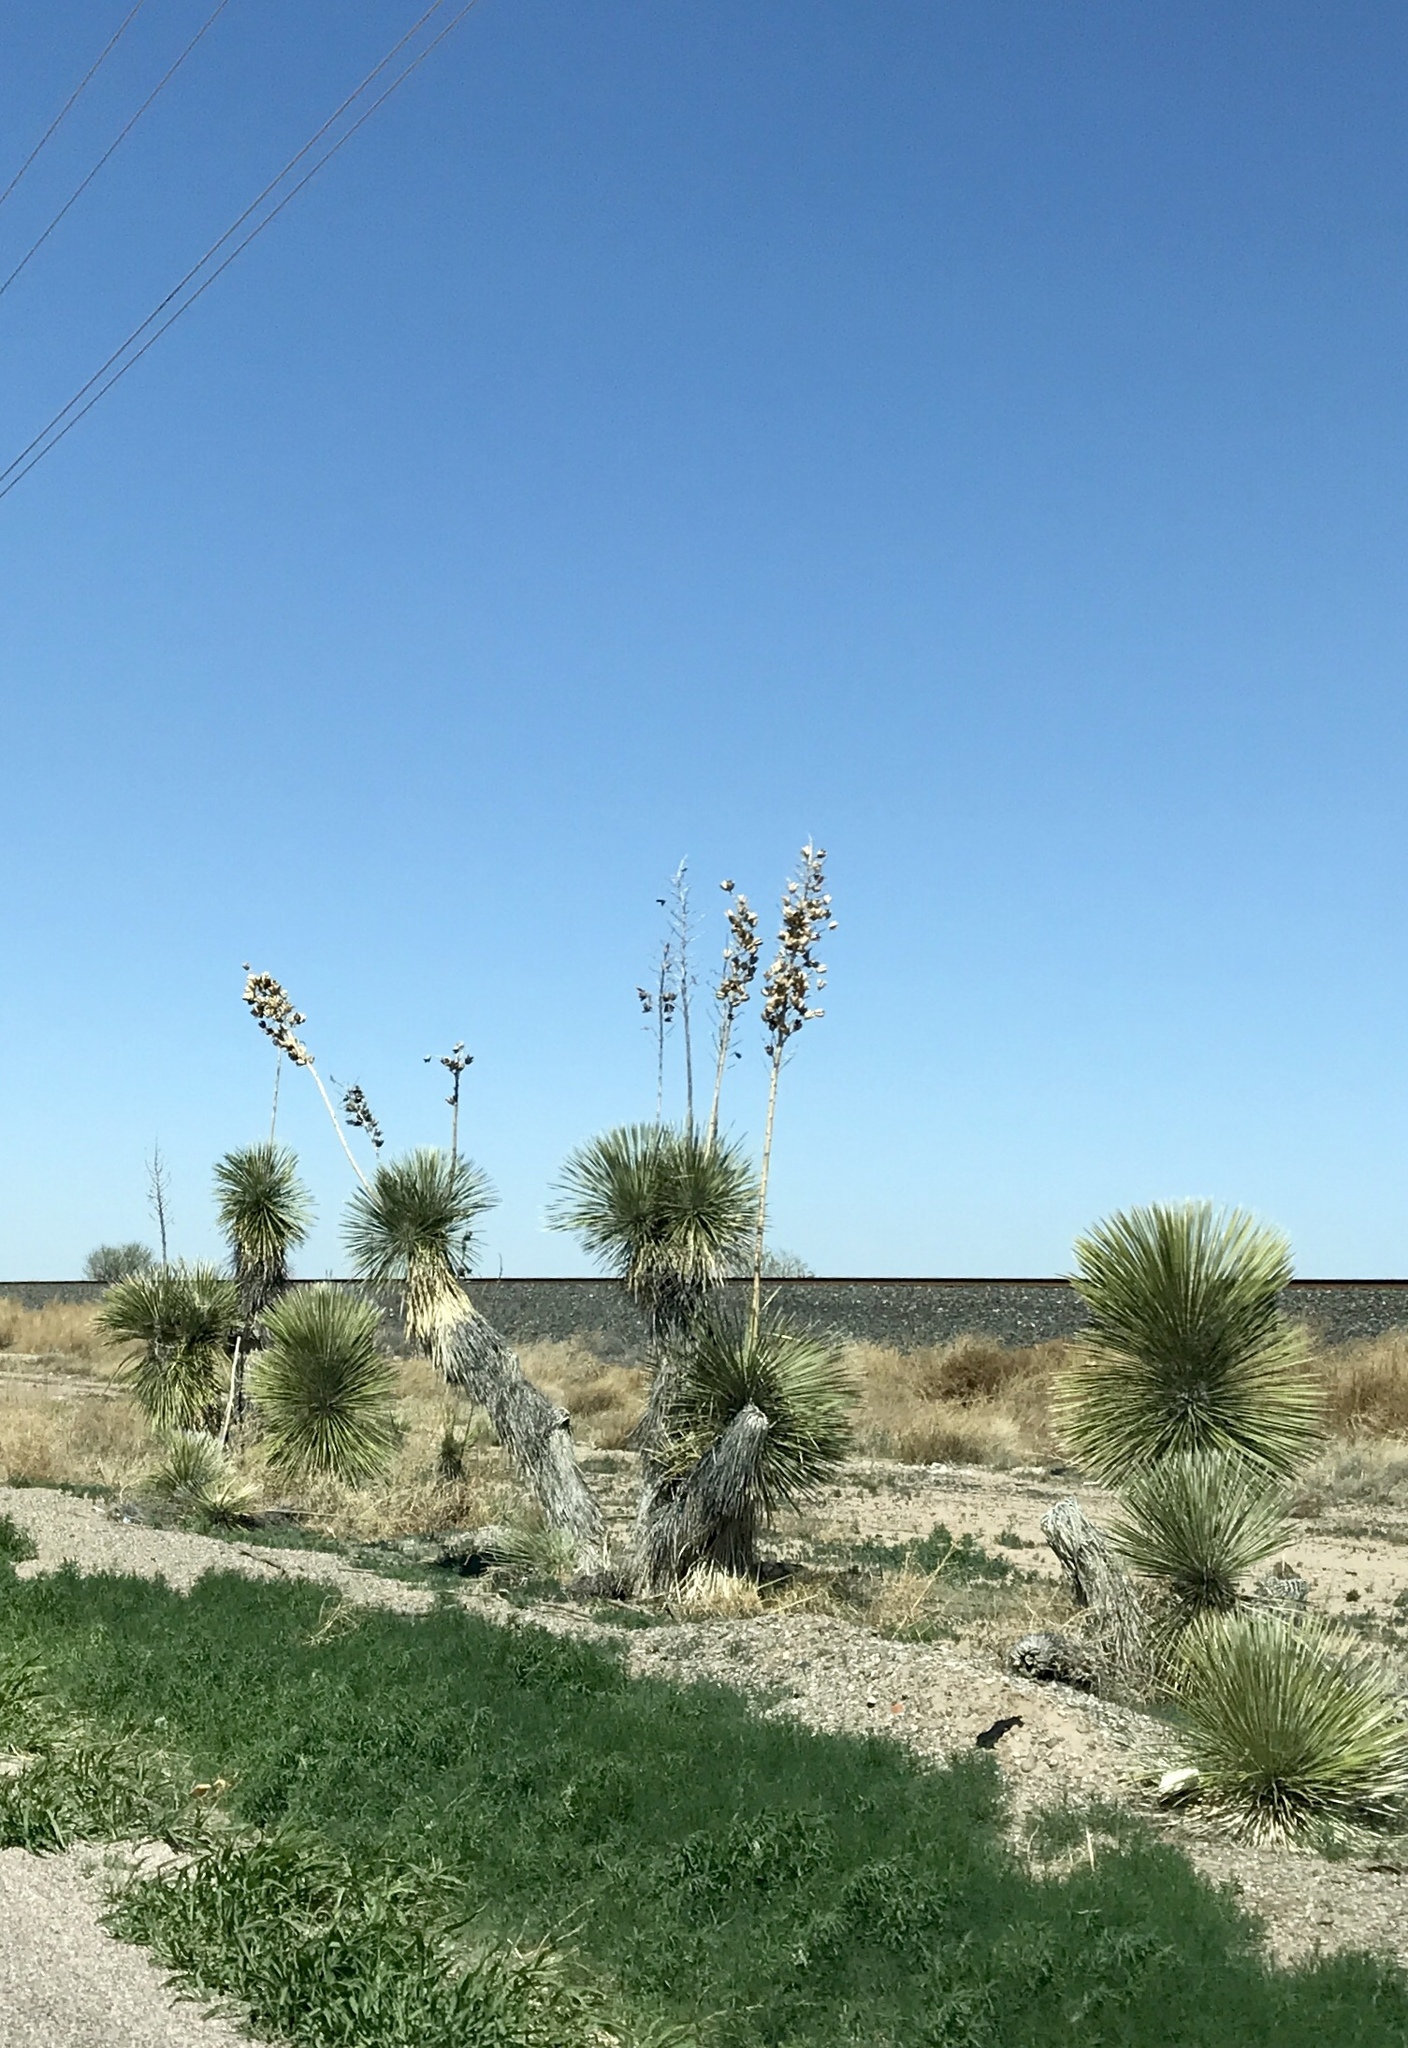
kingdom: Plantae
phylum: Tracheophyta
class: Liliopsida
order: Asparagales
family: Asparagaceae
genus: Yucca
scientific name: Yucca elata
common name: Palmella
